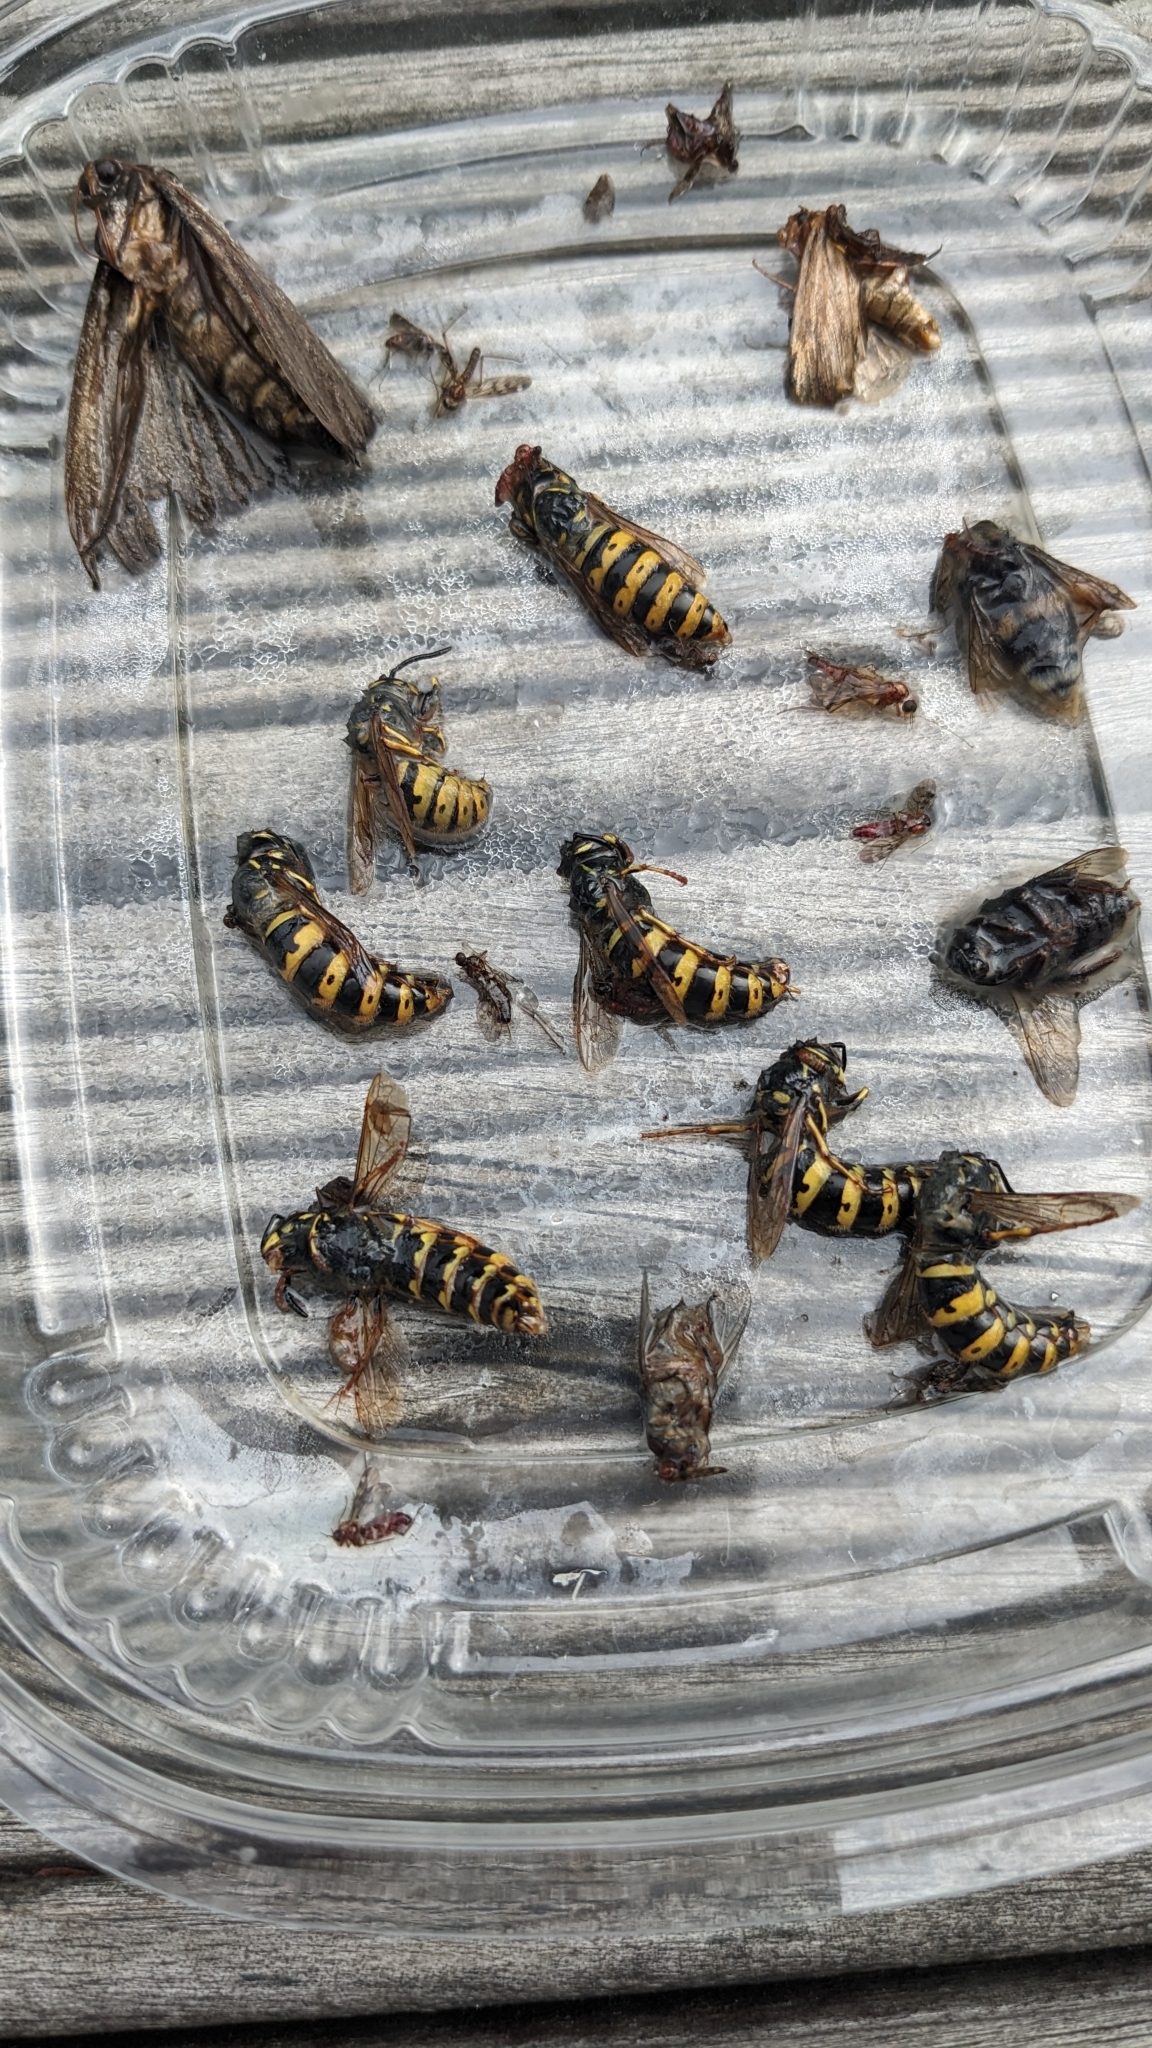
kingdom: Animalia
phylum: Arthropoda
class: Insecta
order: Hymenoptera
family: Vespidae
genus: Vespula
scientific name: Vespula vulgaris
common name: Common wasp
